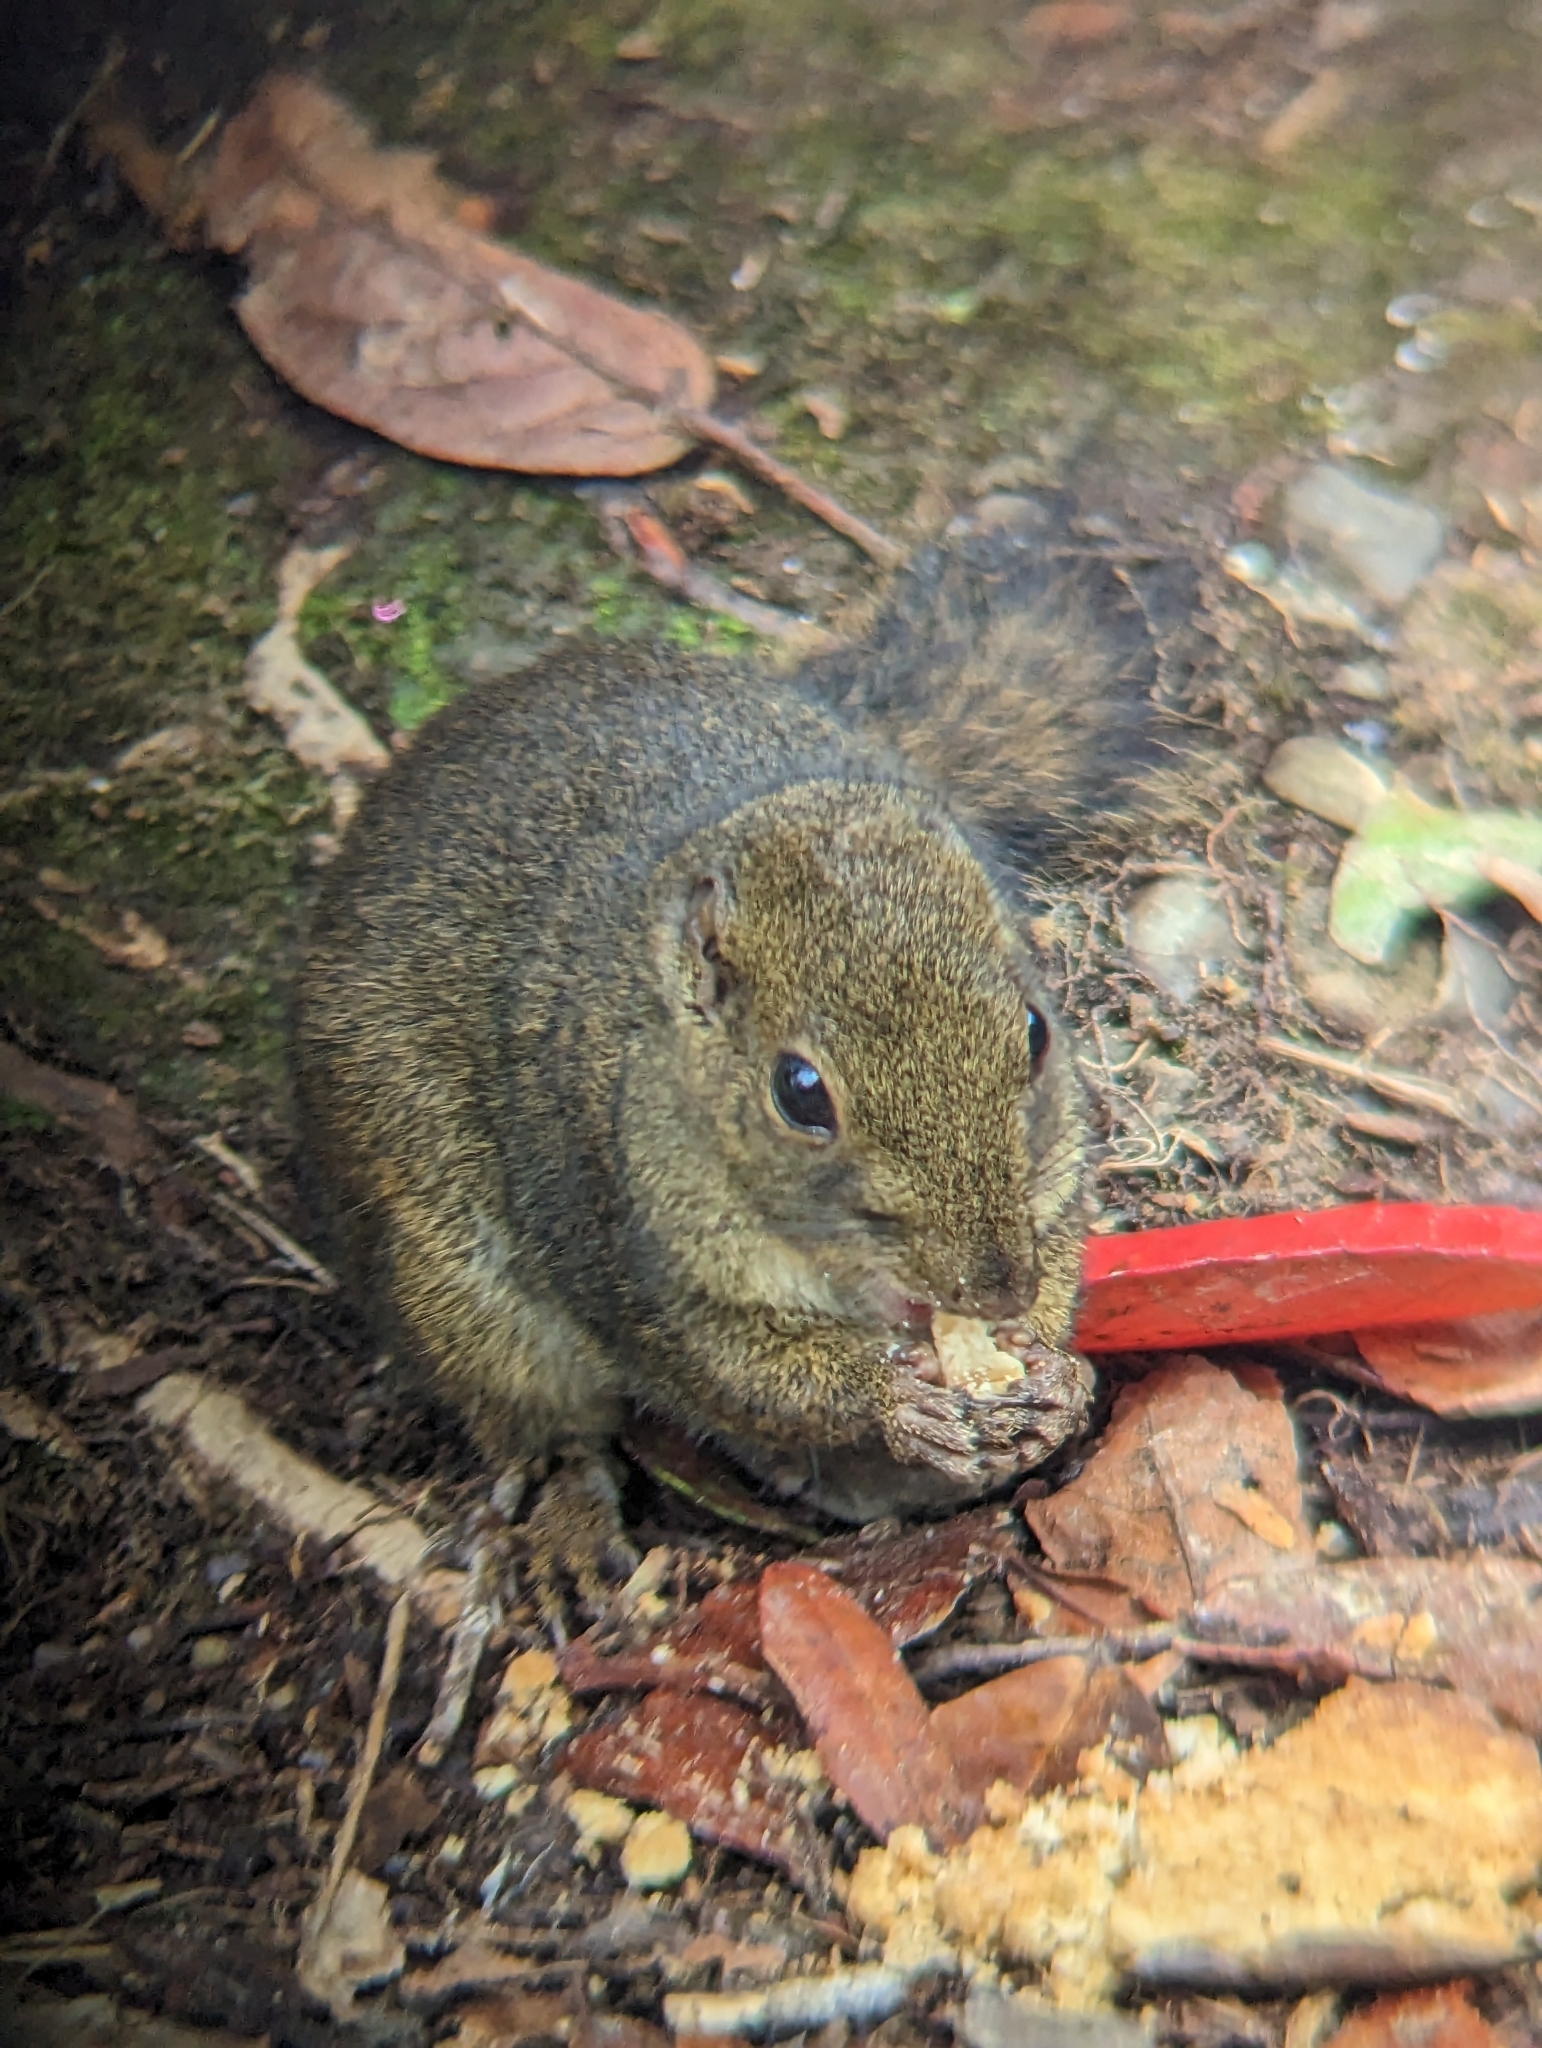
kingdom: Animalia
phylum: Chordata
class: Mammalia
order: Rodentia
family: Sciuridae
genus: Sundasciurus
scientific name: Sundasciurus everetti
